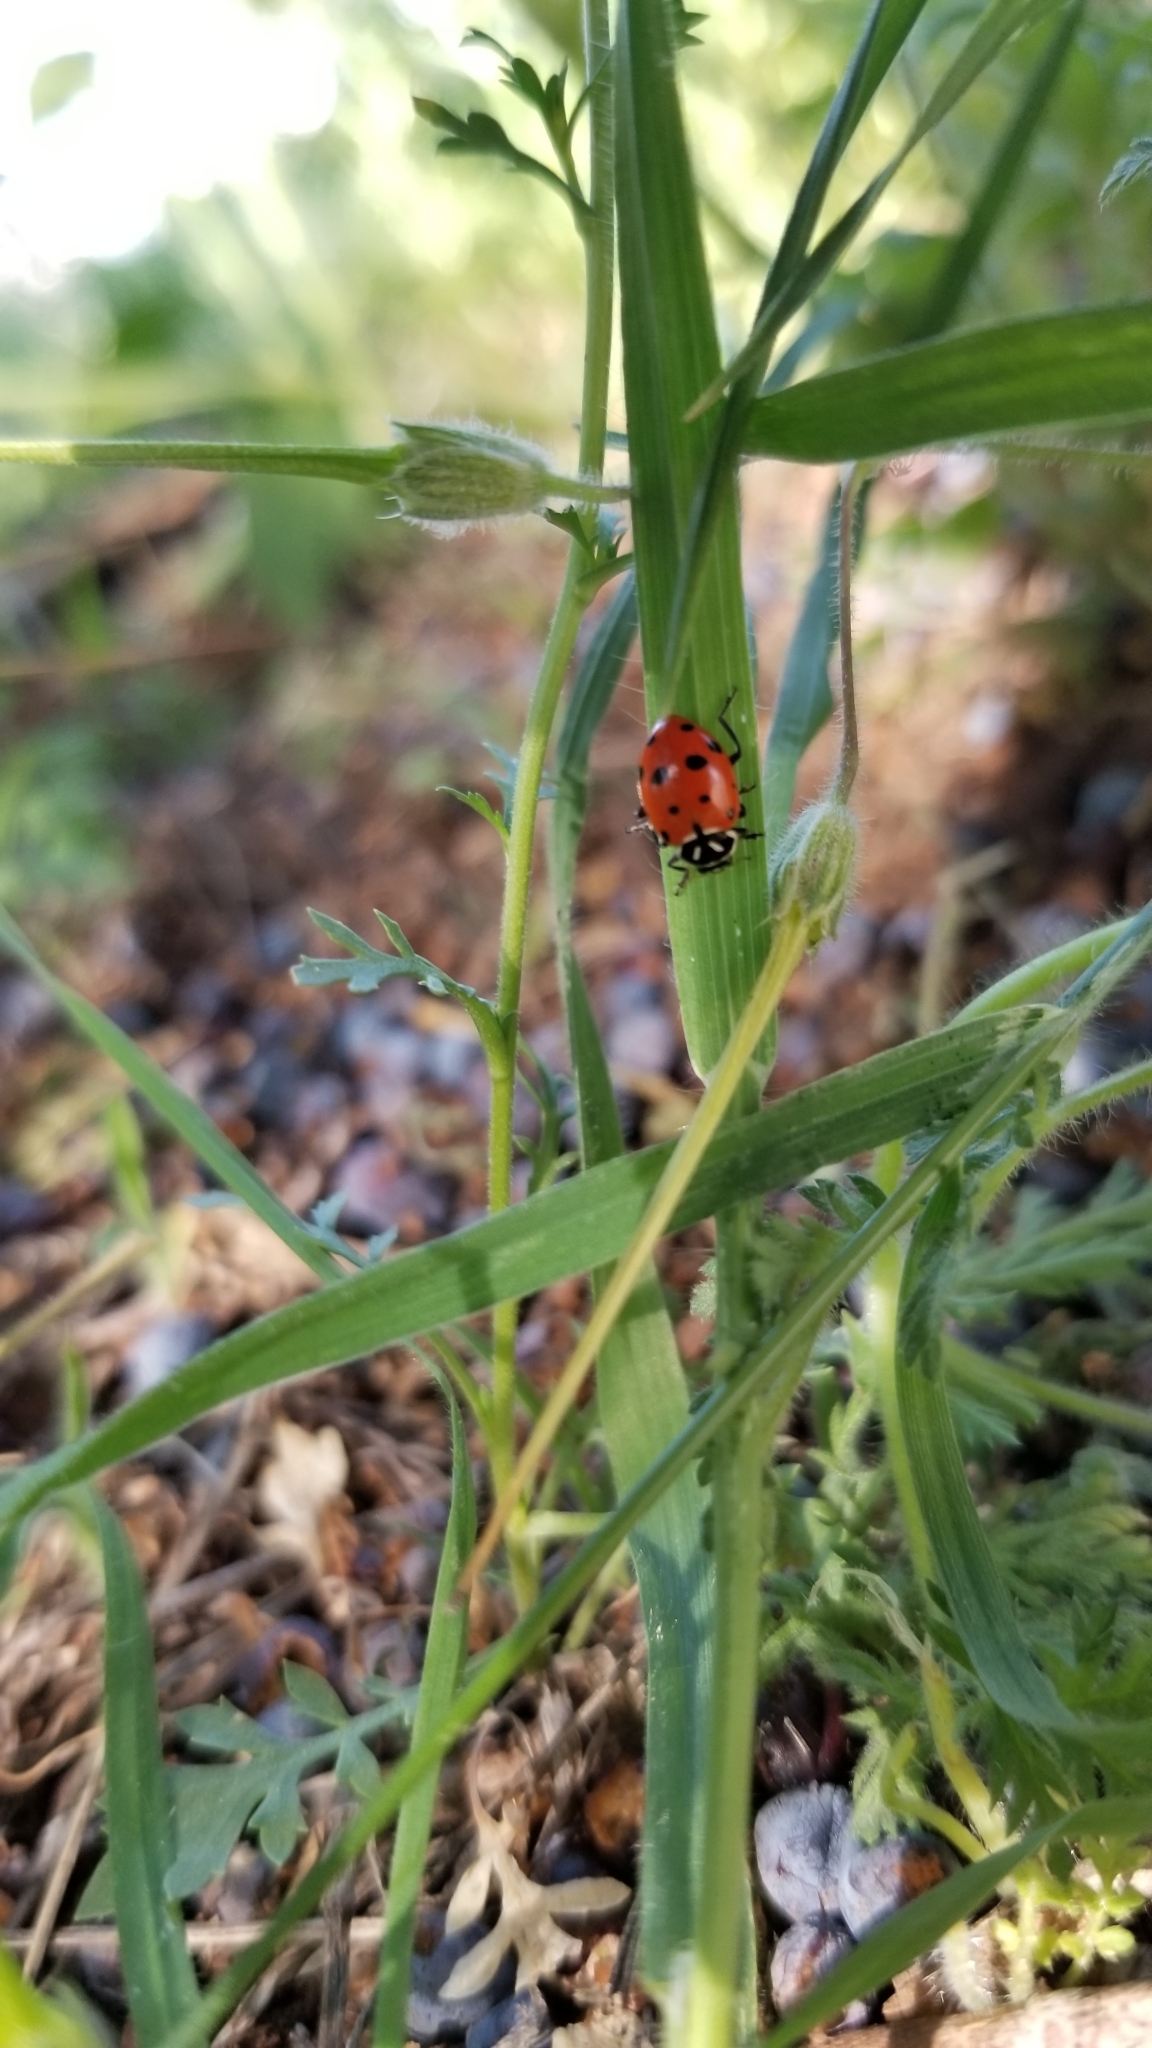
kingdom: Animalia
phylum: Arthropoda
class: Insecta
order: Coleoptera
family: Coccinellidae
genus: Hippodamia
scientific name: Hippodamia convergens
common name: Convergent lady beetle
